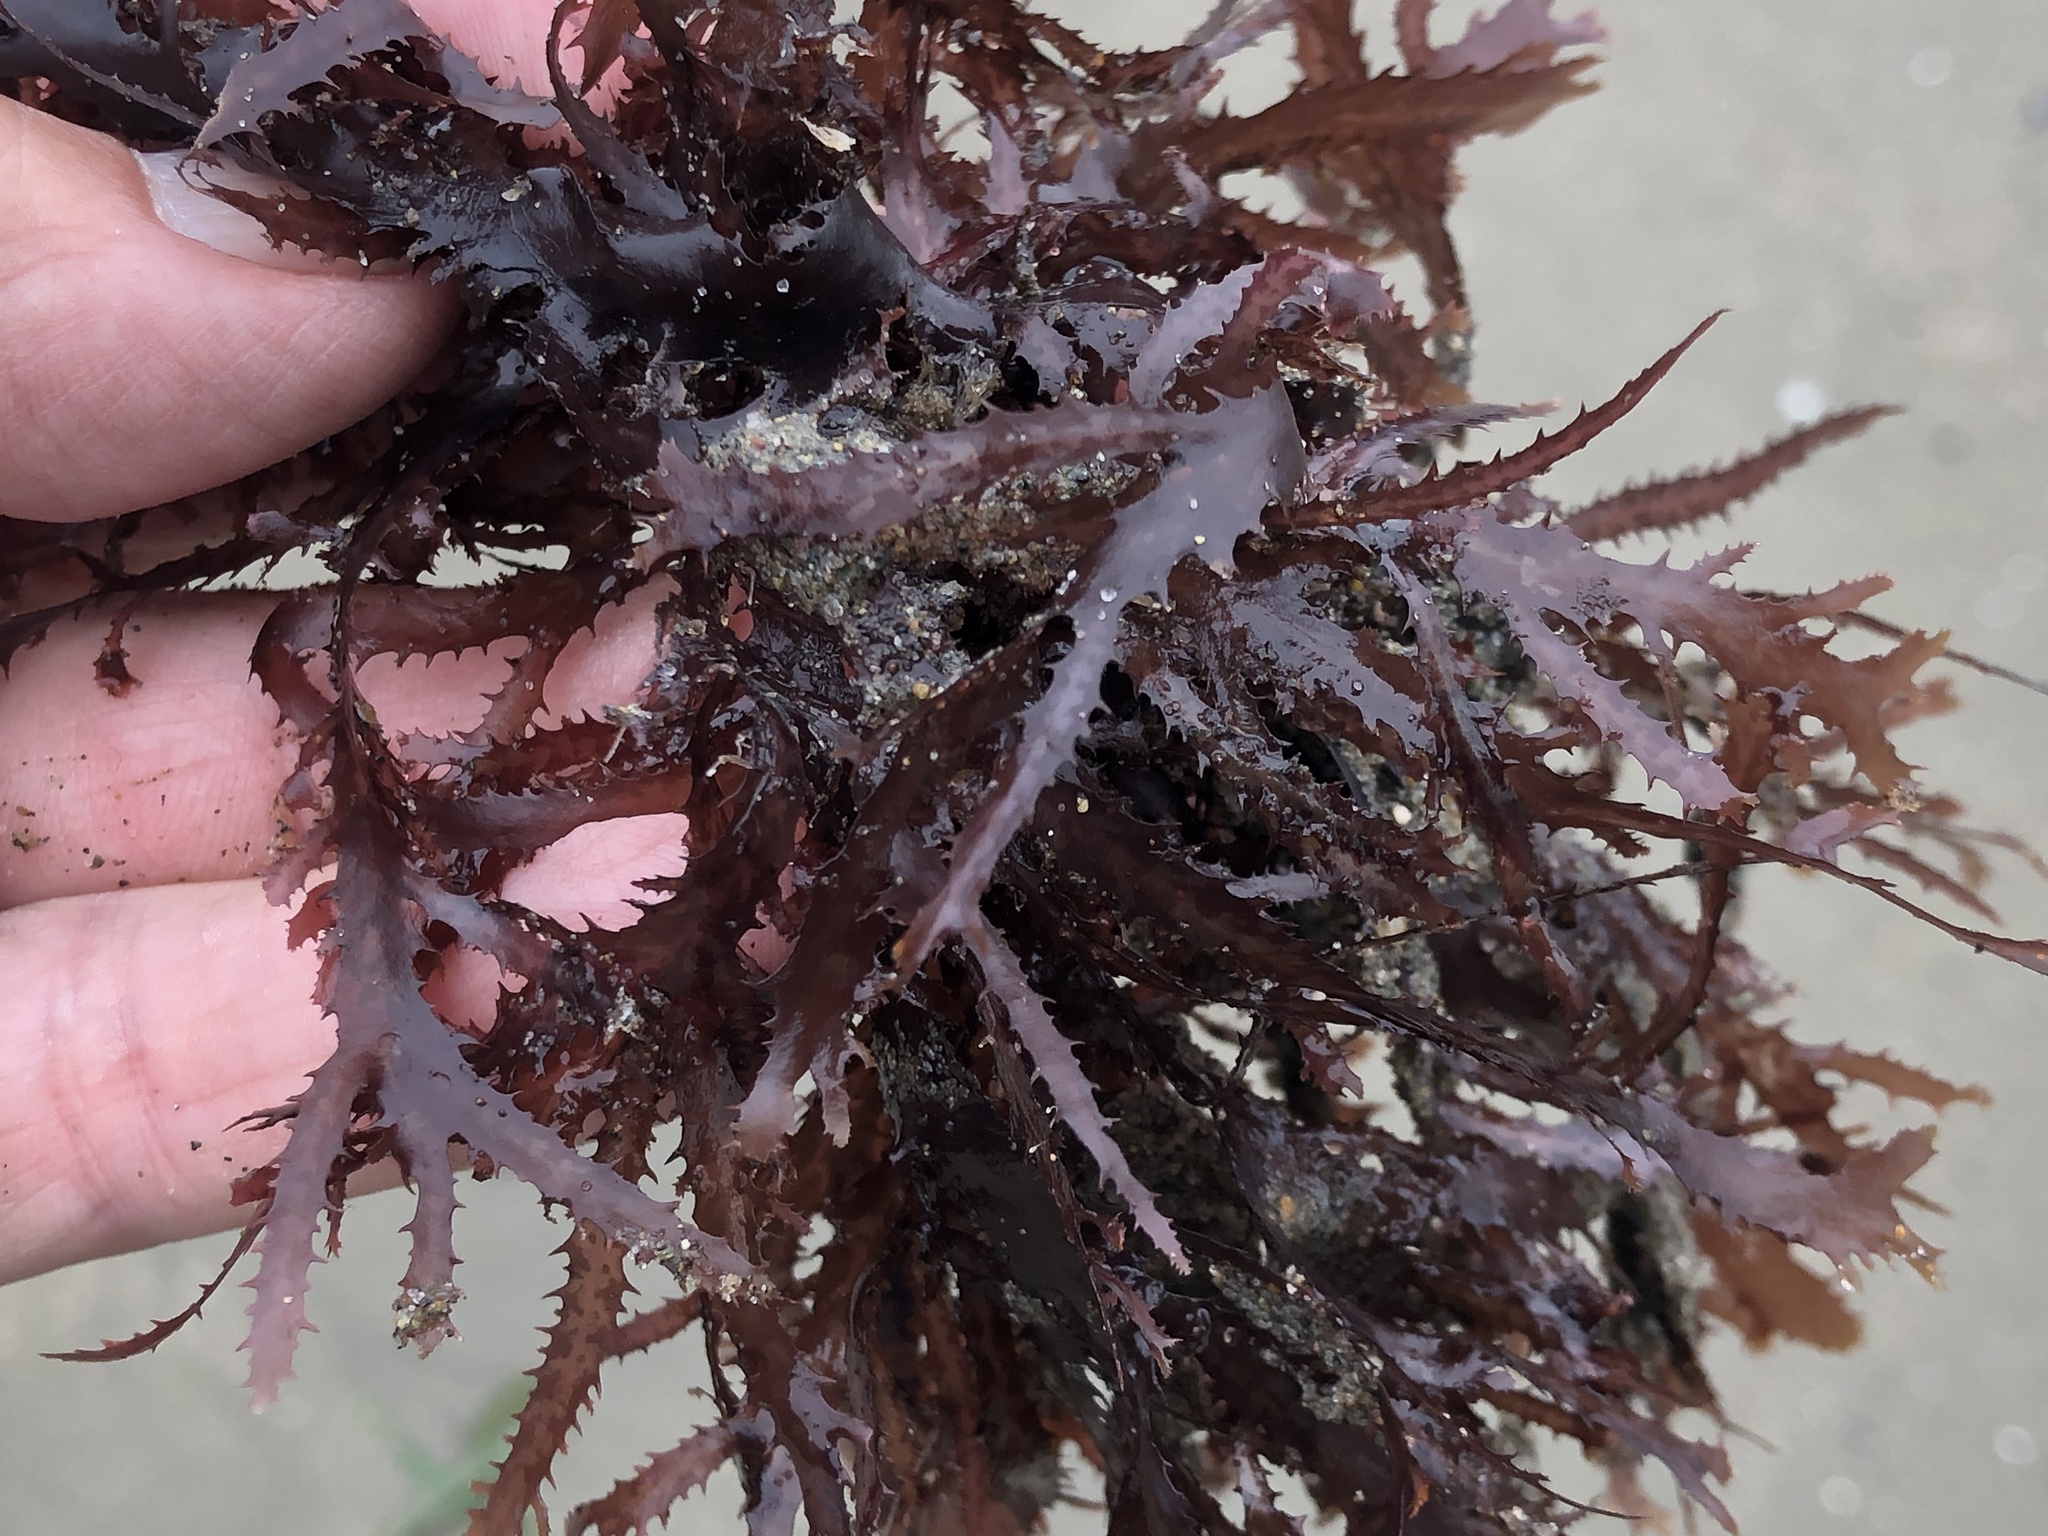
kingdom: Plantae
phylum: Rhodophyta
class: Florideophyceae
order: Ceramiales
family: Delesseriaceae
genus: Nienburgia
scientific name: Nienburgia andersoniana
